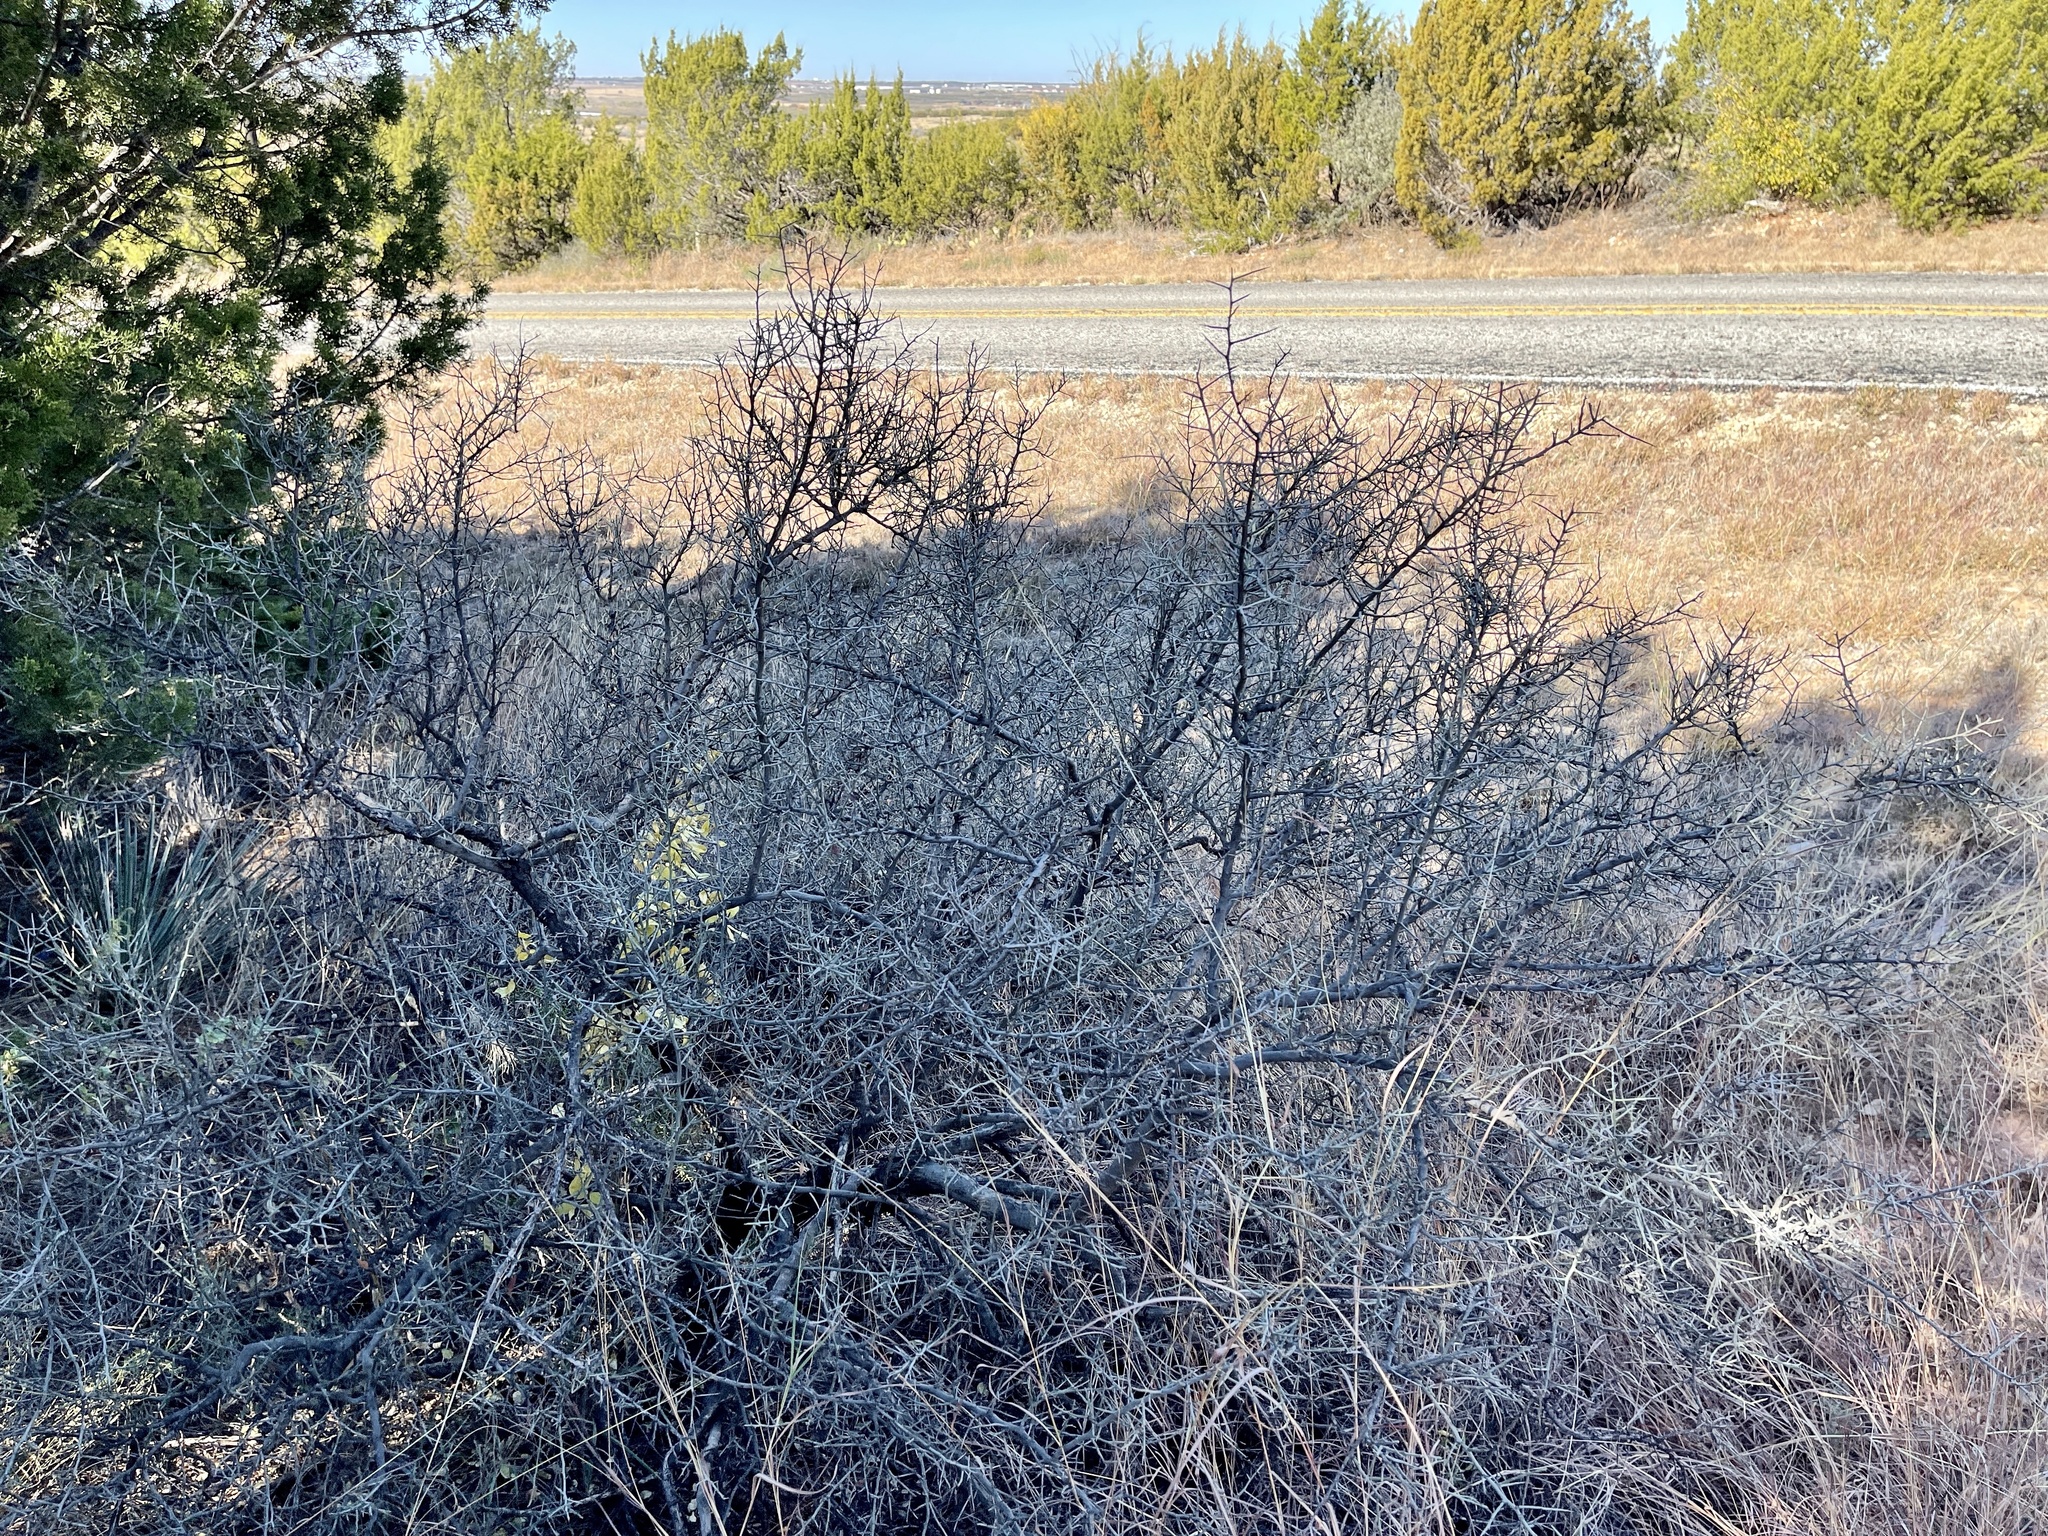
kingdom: Plantae
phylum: Tracheophyta
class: Magnoliopsida
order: Rosales
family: Rhamnaceae
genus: Sarcomphalus
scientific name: Sarcomphalus obtusifolius
